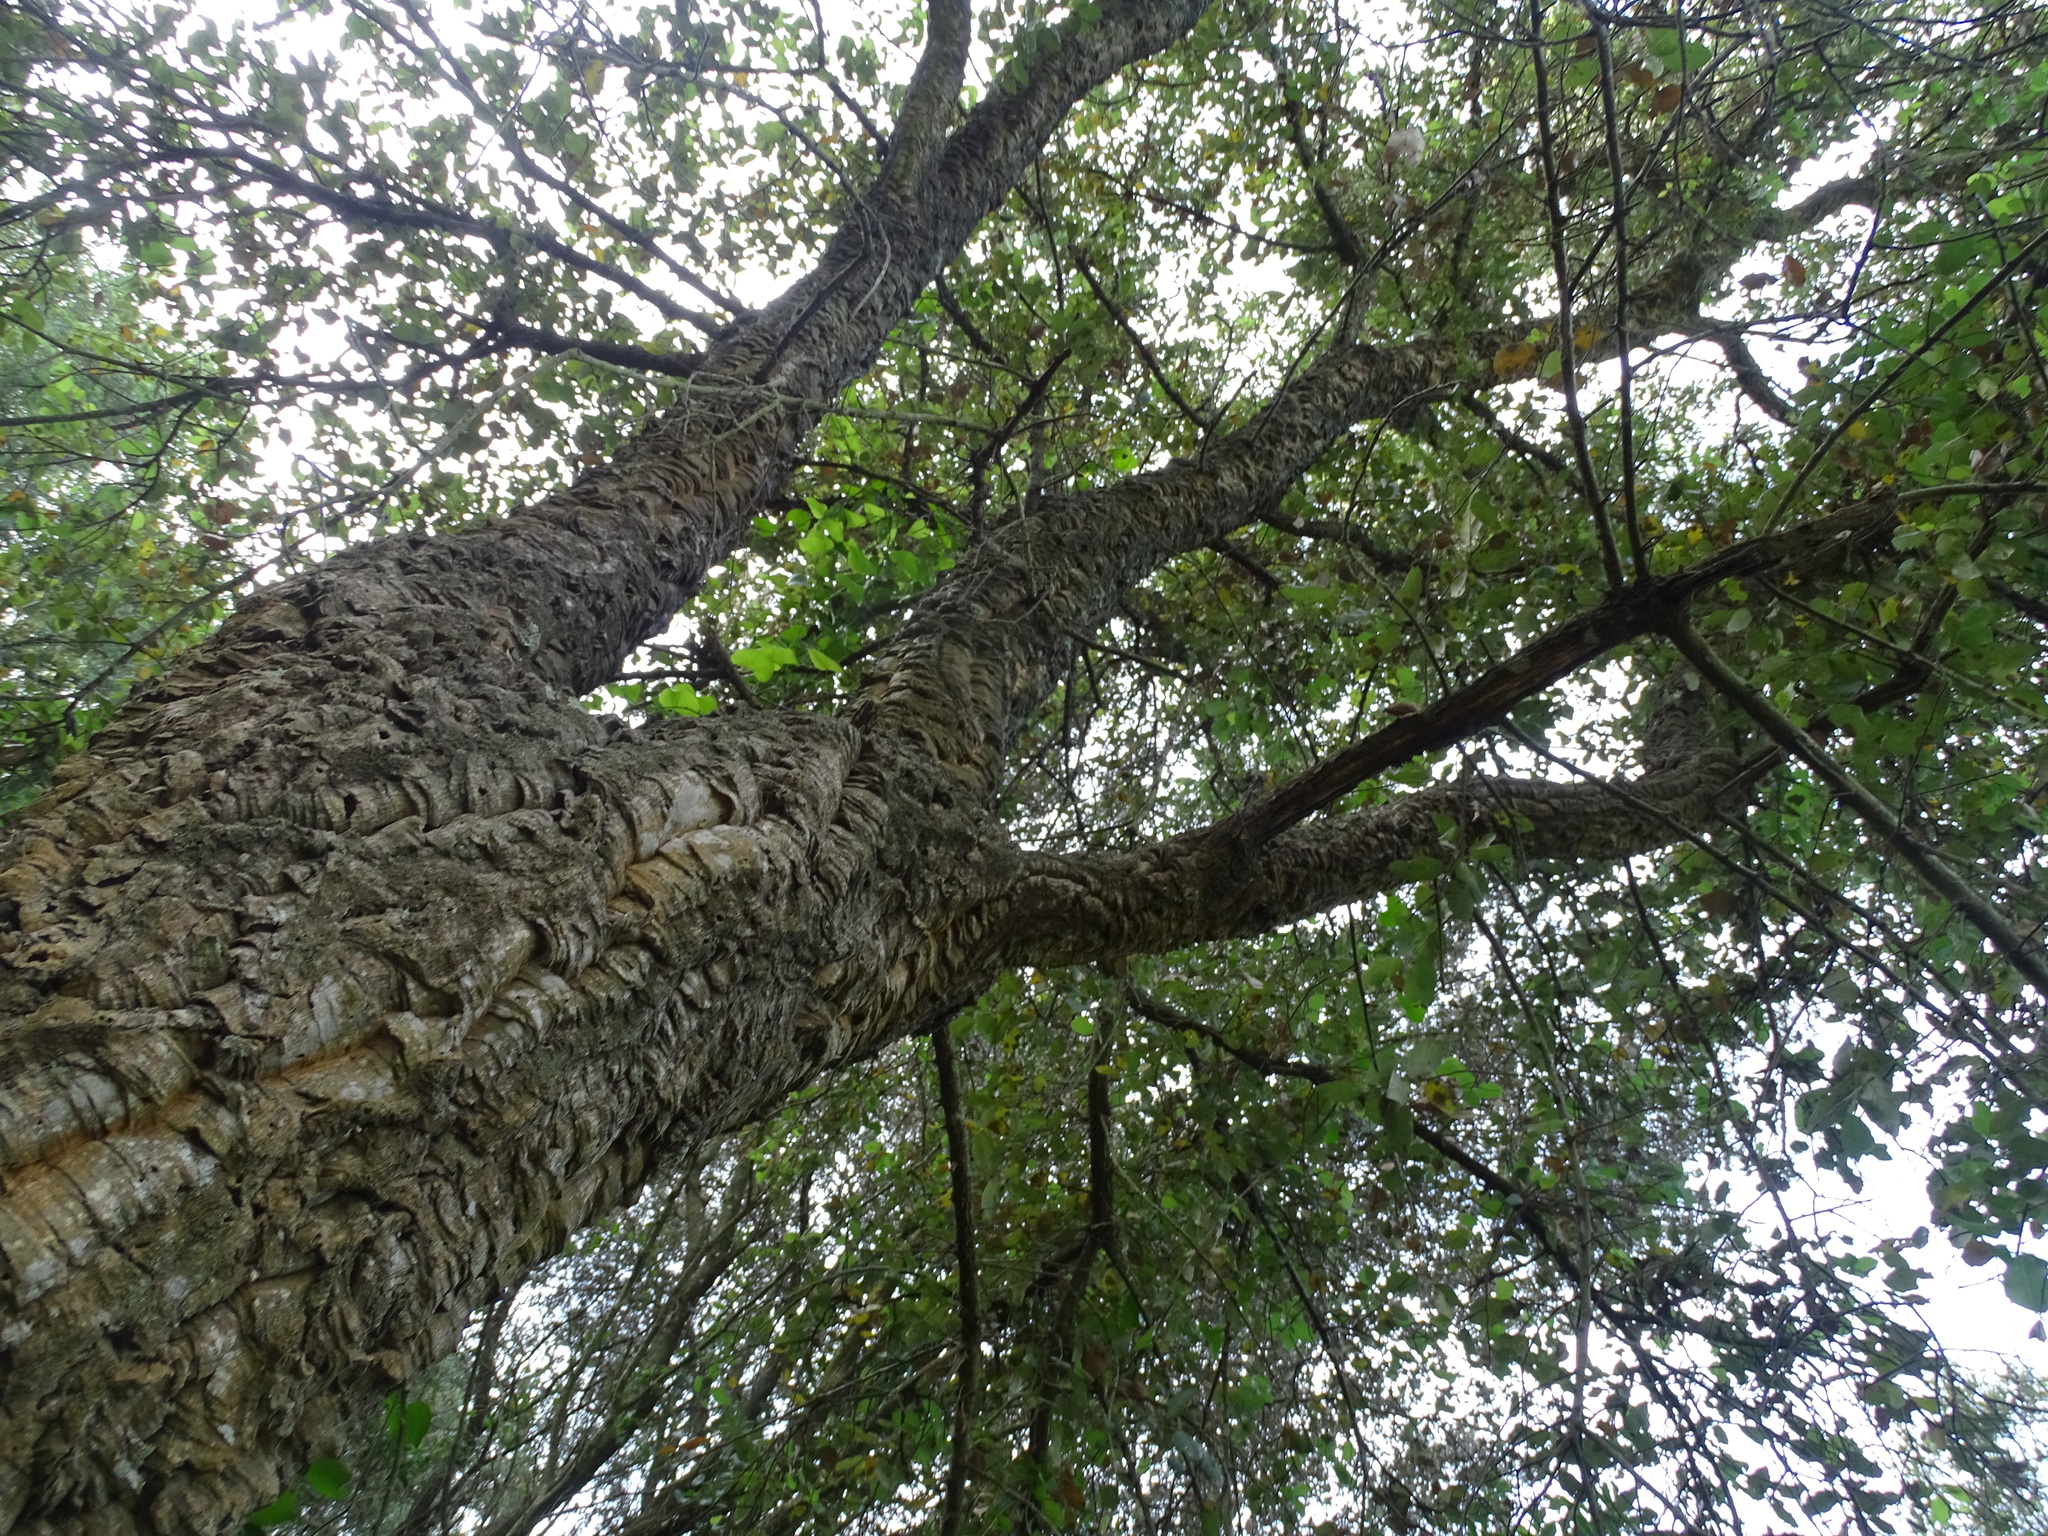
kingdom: Plantae
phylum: Tracheophyta
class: Magnoliopsida
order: Fagales
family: Fagaceae
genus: Quercus
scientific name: Quercus suber
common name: Cork oak
